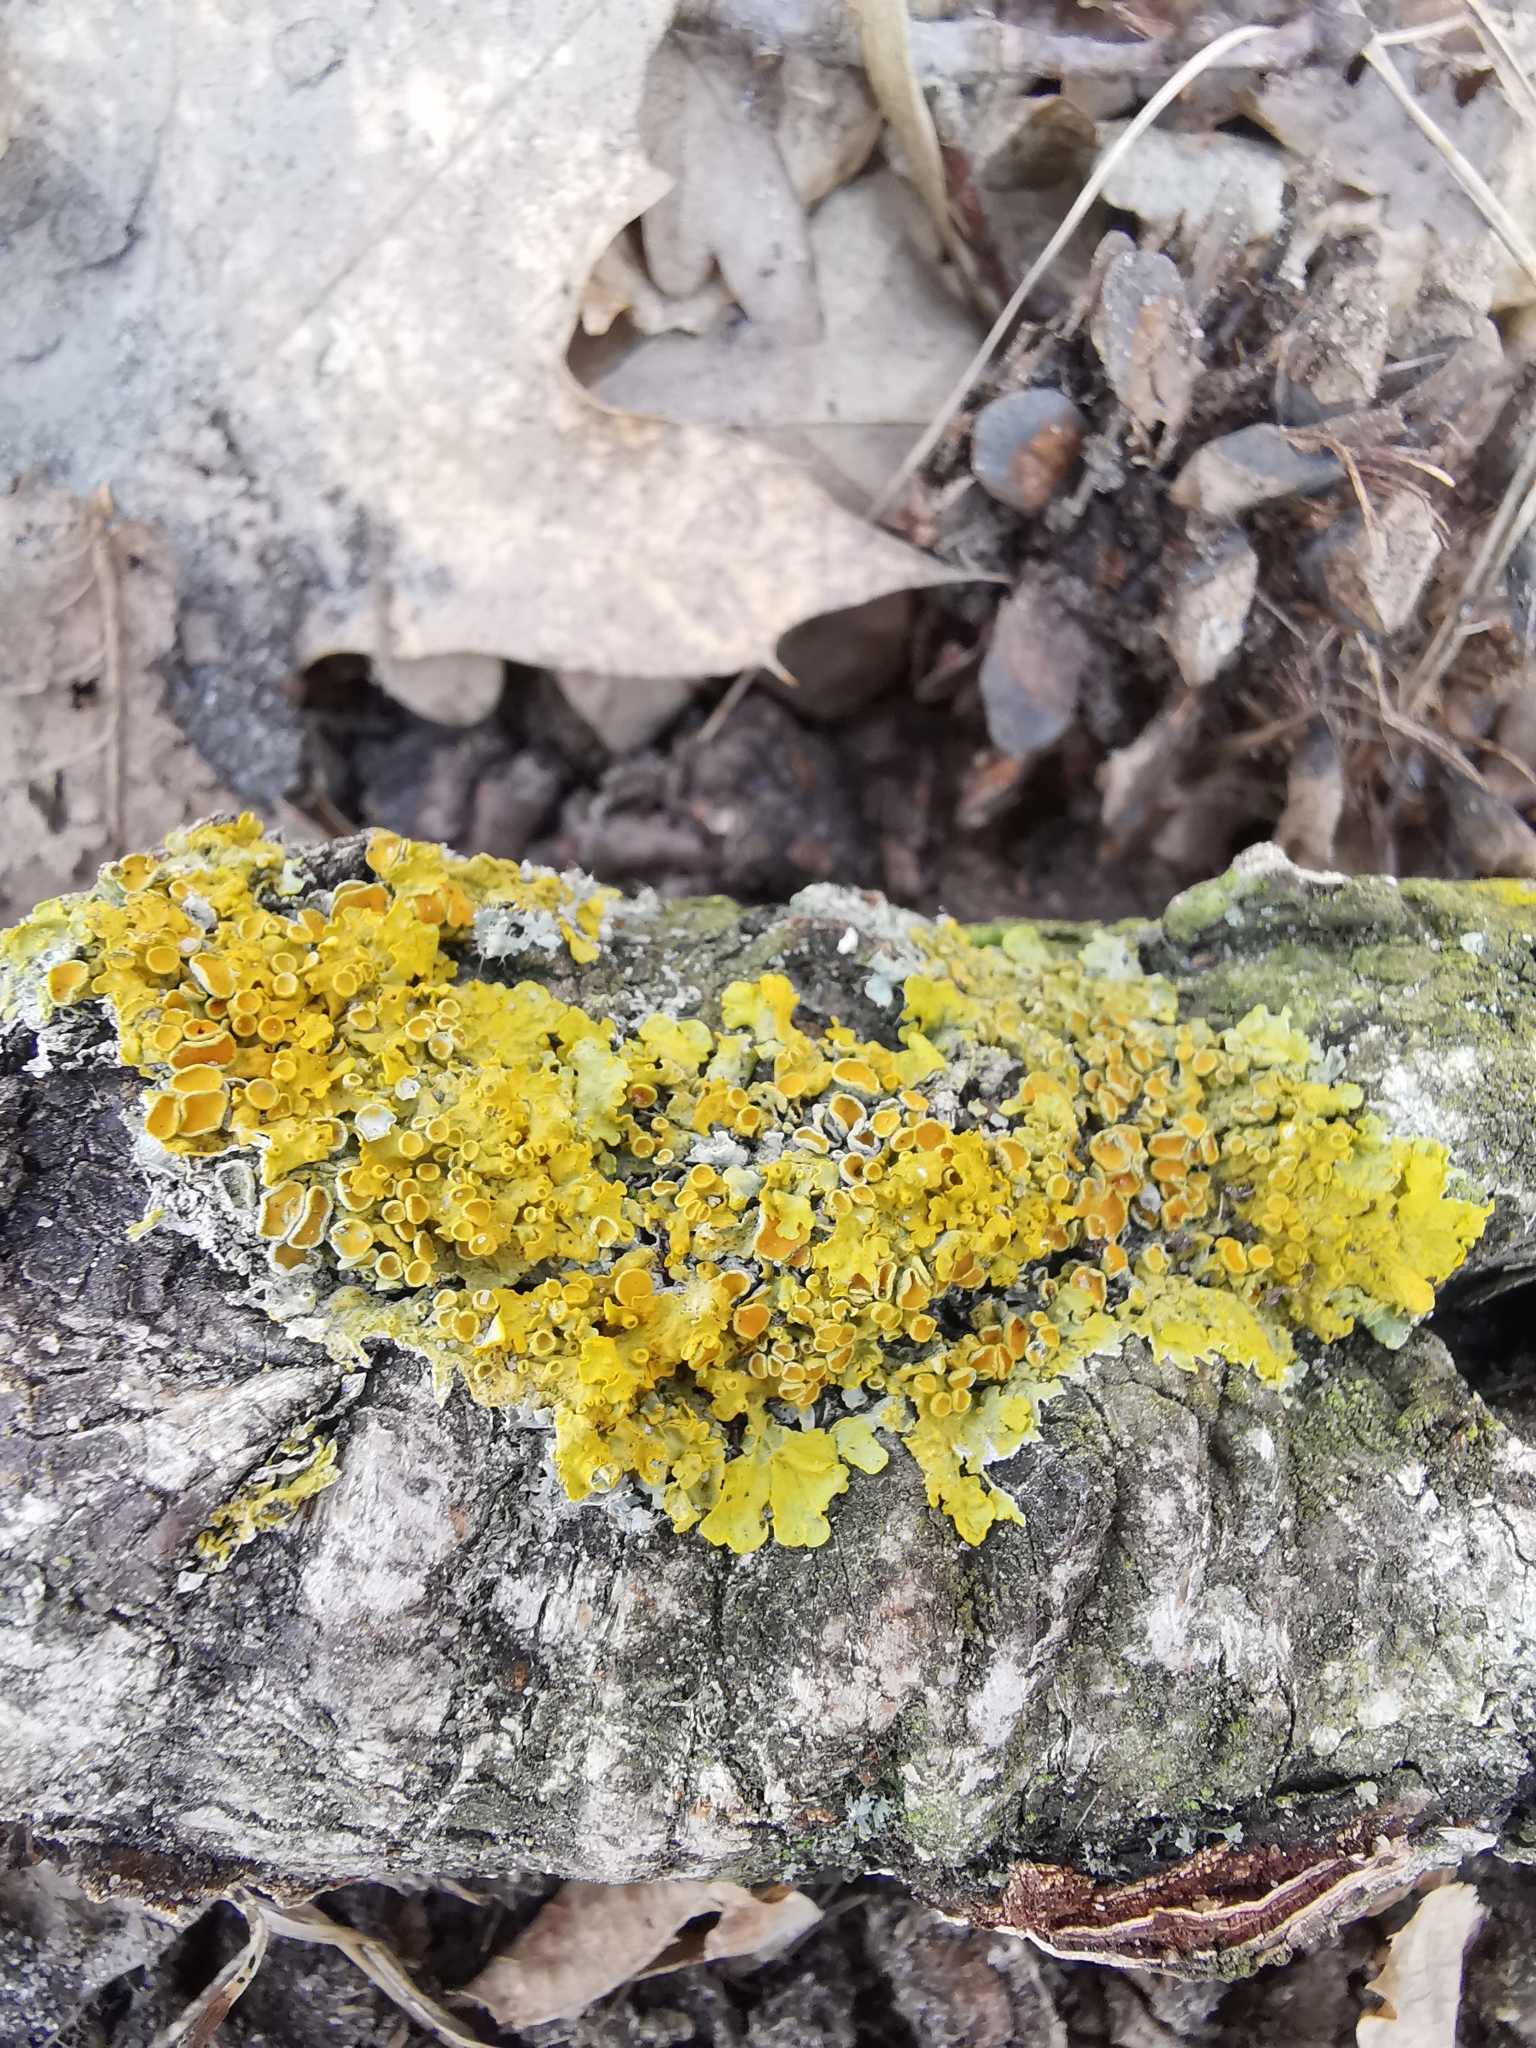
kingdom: Fungi
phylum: Ascomycota
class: Lecanoromycetes
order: Teloschistales
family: Teloschistaceae
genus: Xanthoria
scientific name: Xanthoria parietina
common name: Common orange lichen
